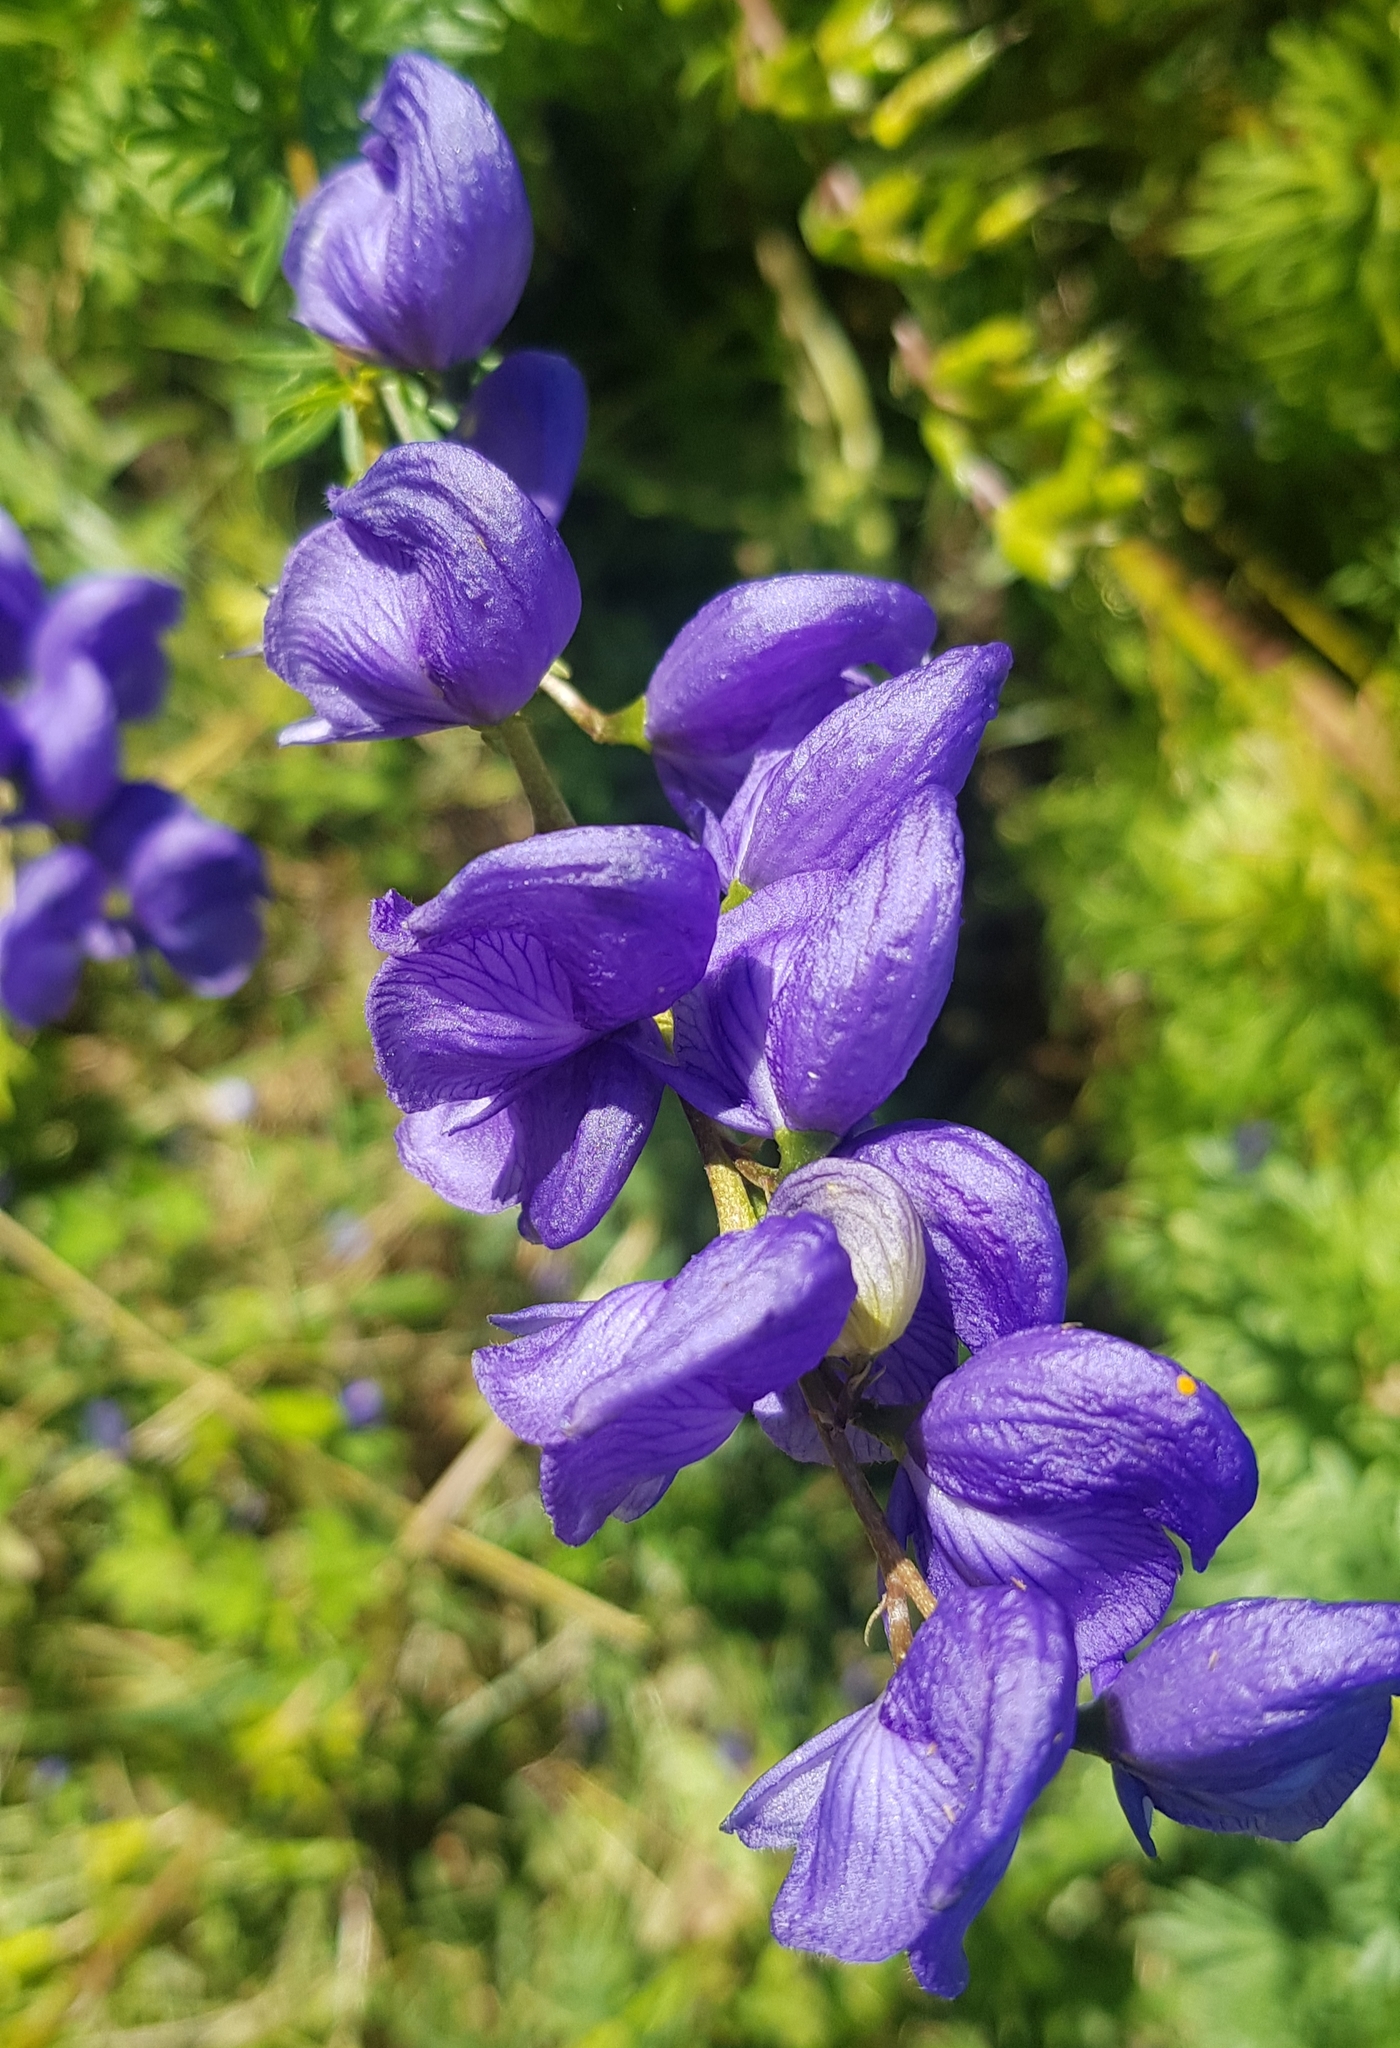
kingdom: Plantae
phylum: Tracheophyta
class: Magnoliopsida
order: Ranunculales
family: Ranunculaceae
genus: Aconitum
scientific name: Aconitum turczaninowii
